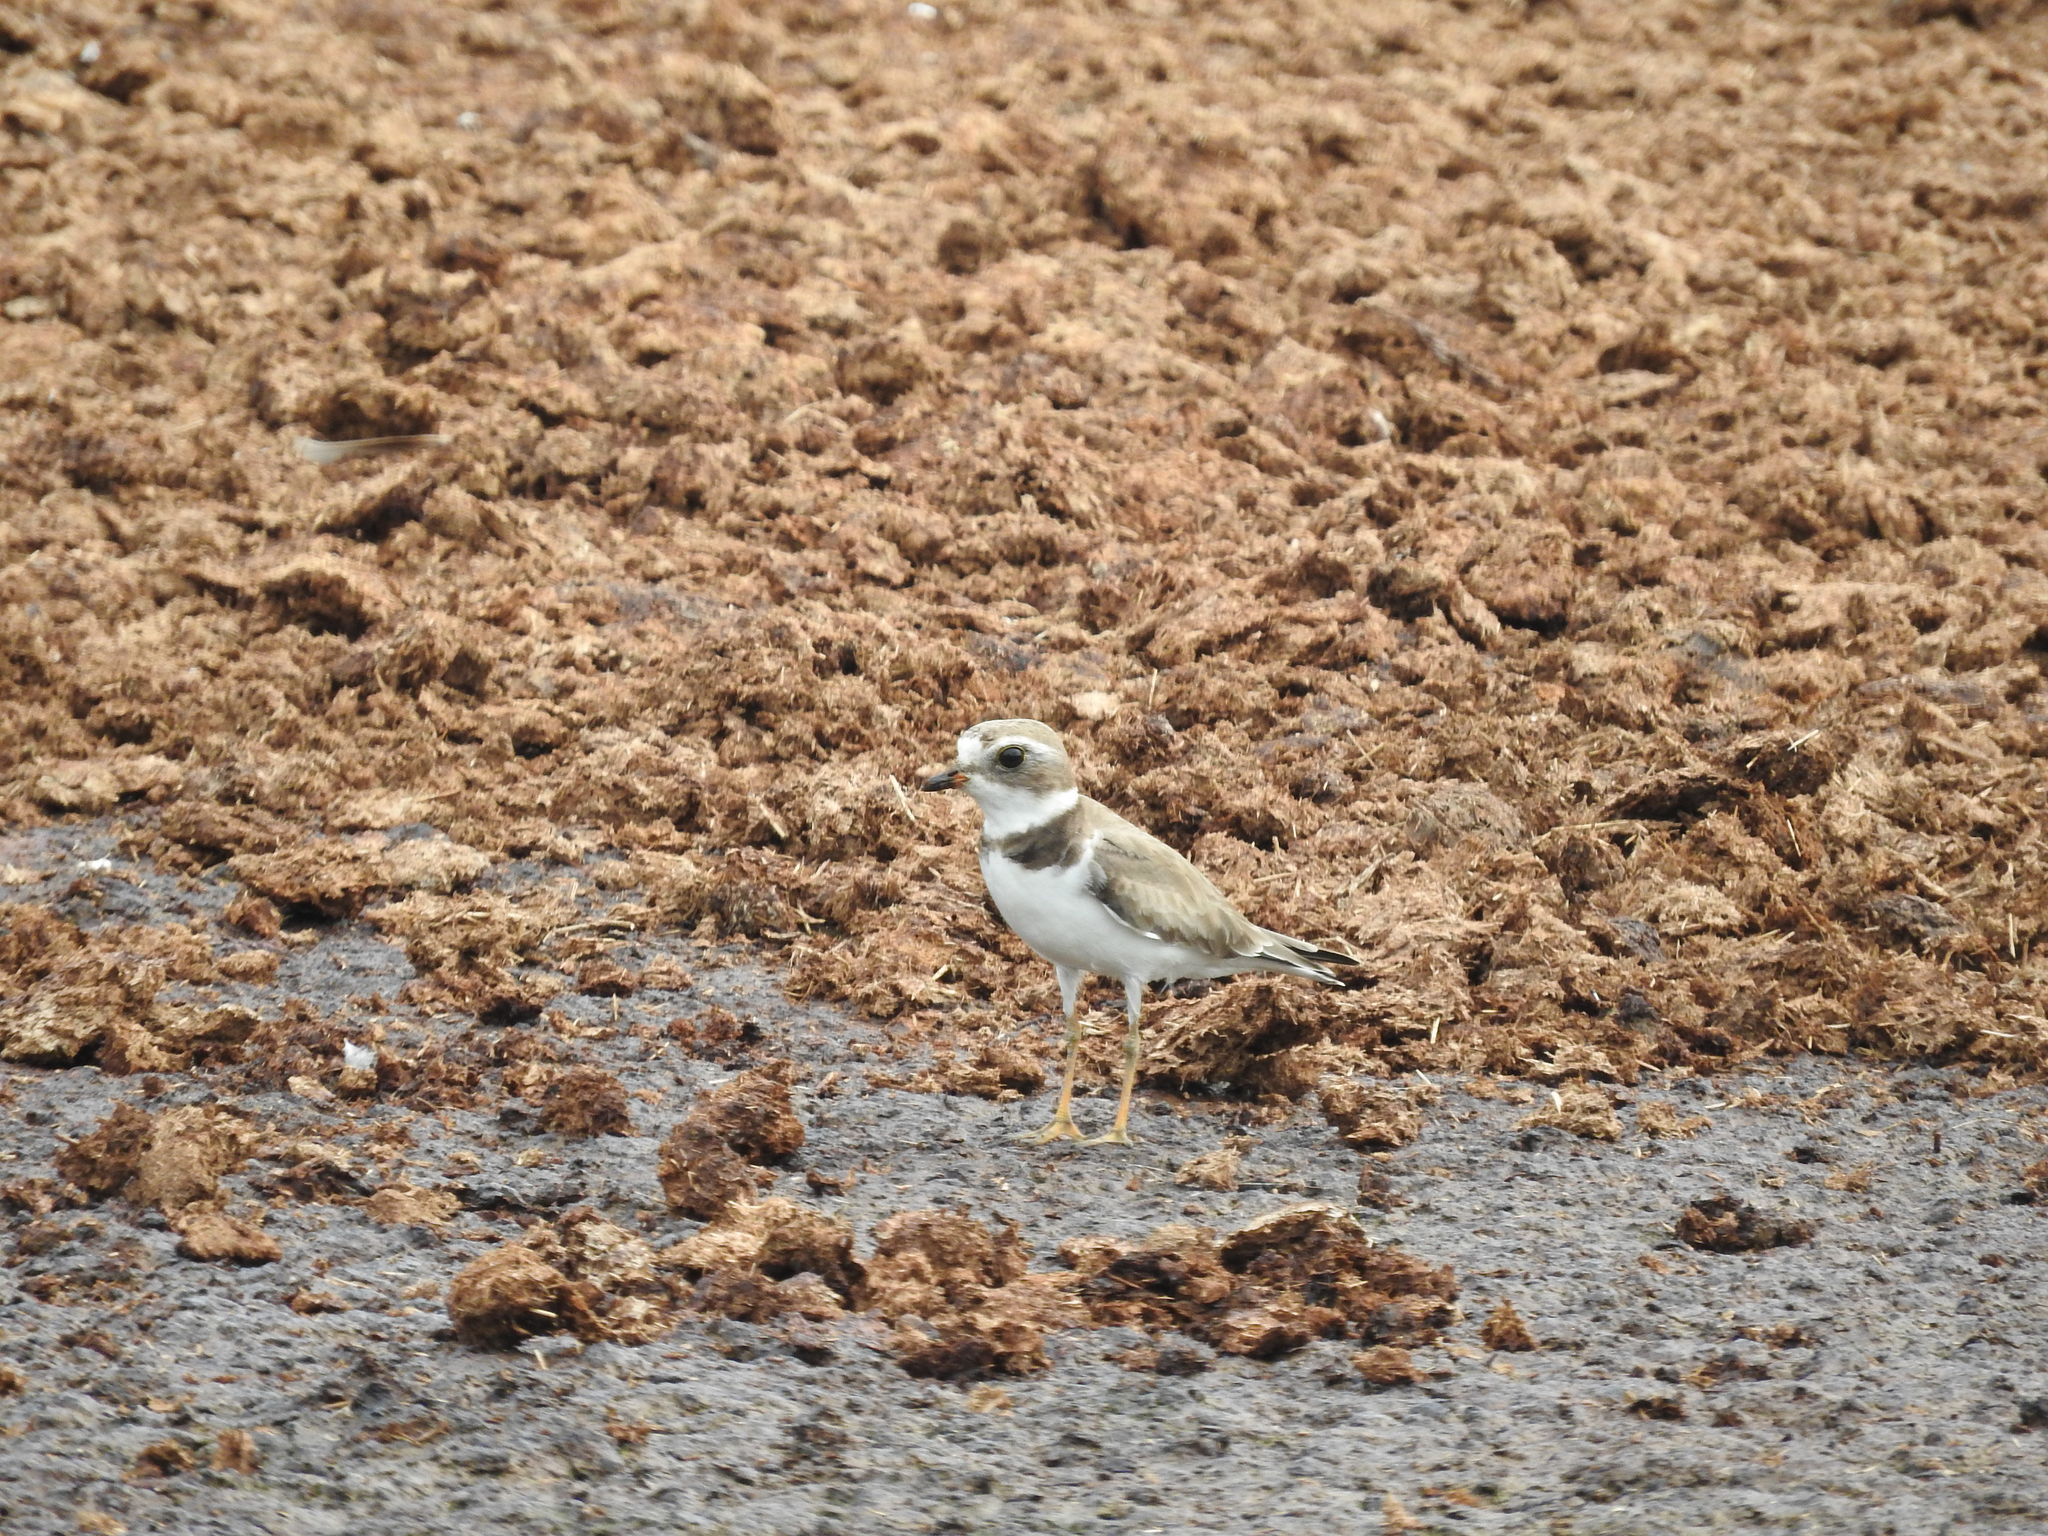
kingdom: Animalia
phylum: Chordata
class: Aves
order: Charadriiformes
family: Charadriidae
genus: Charadrius
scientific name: Charadrius semipalmatus
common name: Semipalmated plover
